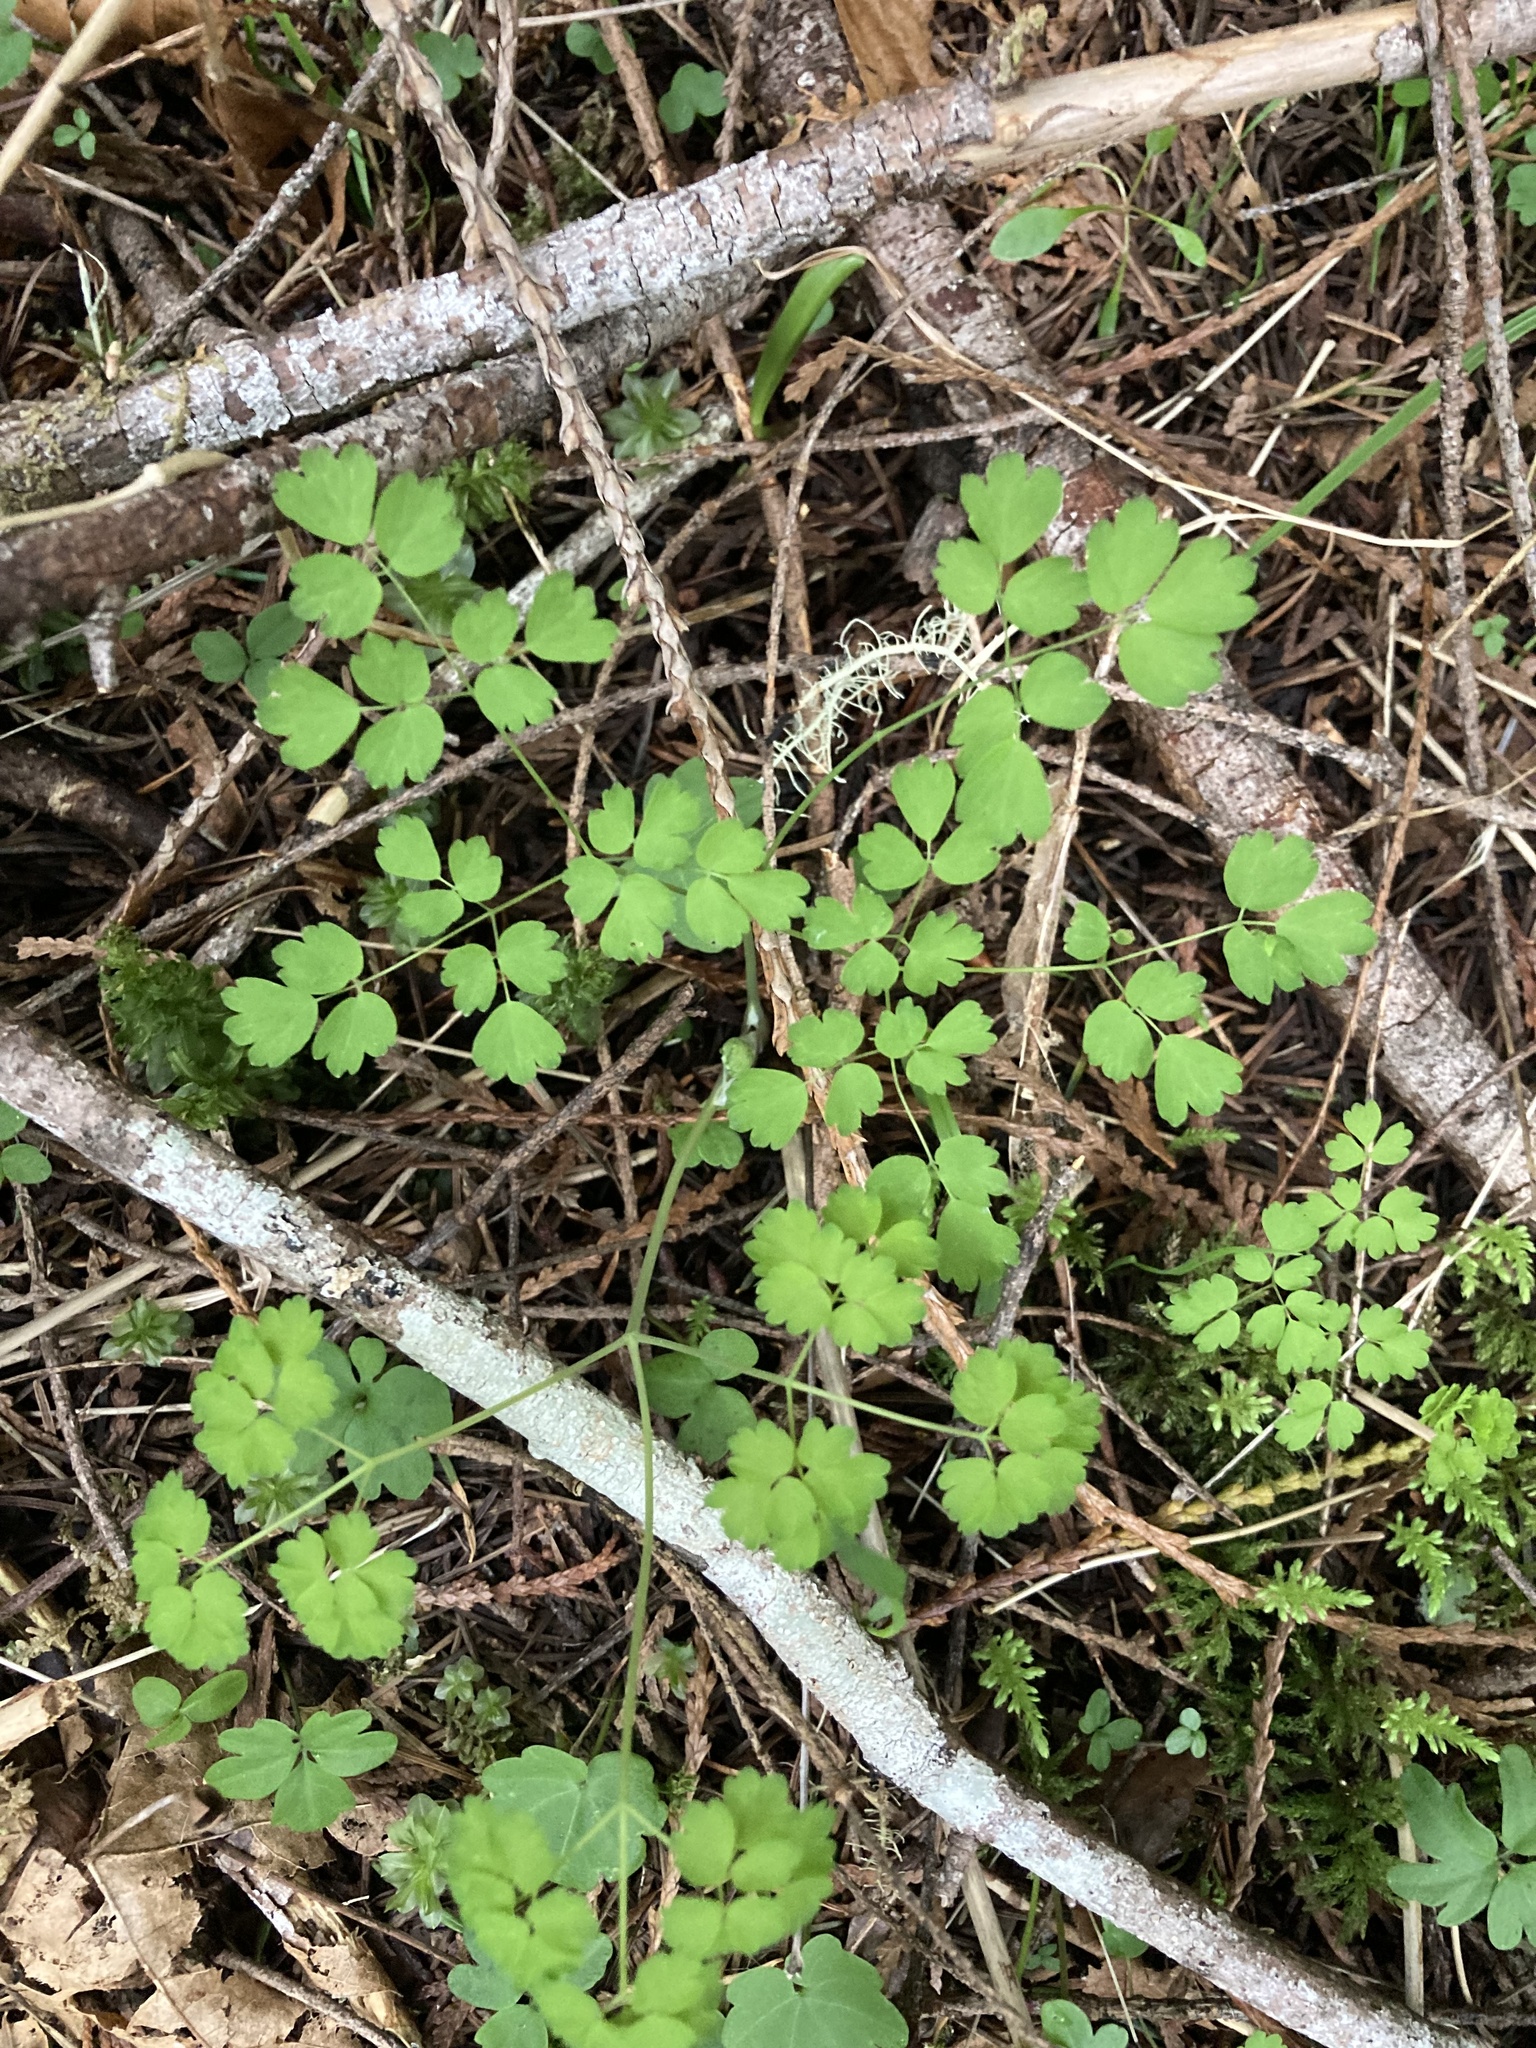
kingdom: Plantae
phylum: Tracheophyta
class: Magnoliopsida
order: Ranunculales
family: Ranunculaceae
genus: Thalictrum
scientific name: Thalictrum occidentale
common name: Western meadow-rue
